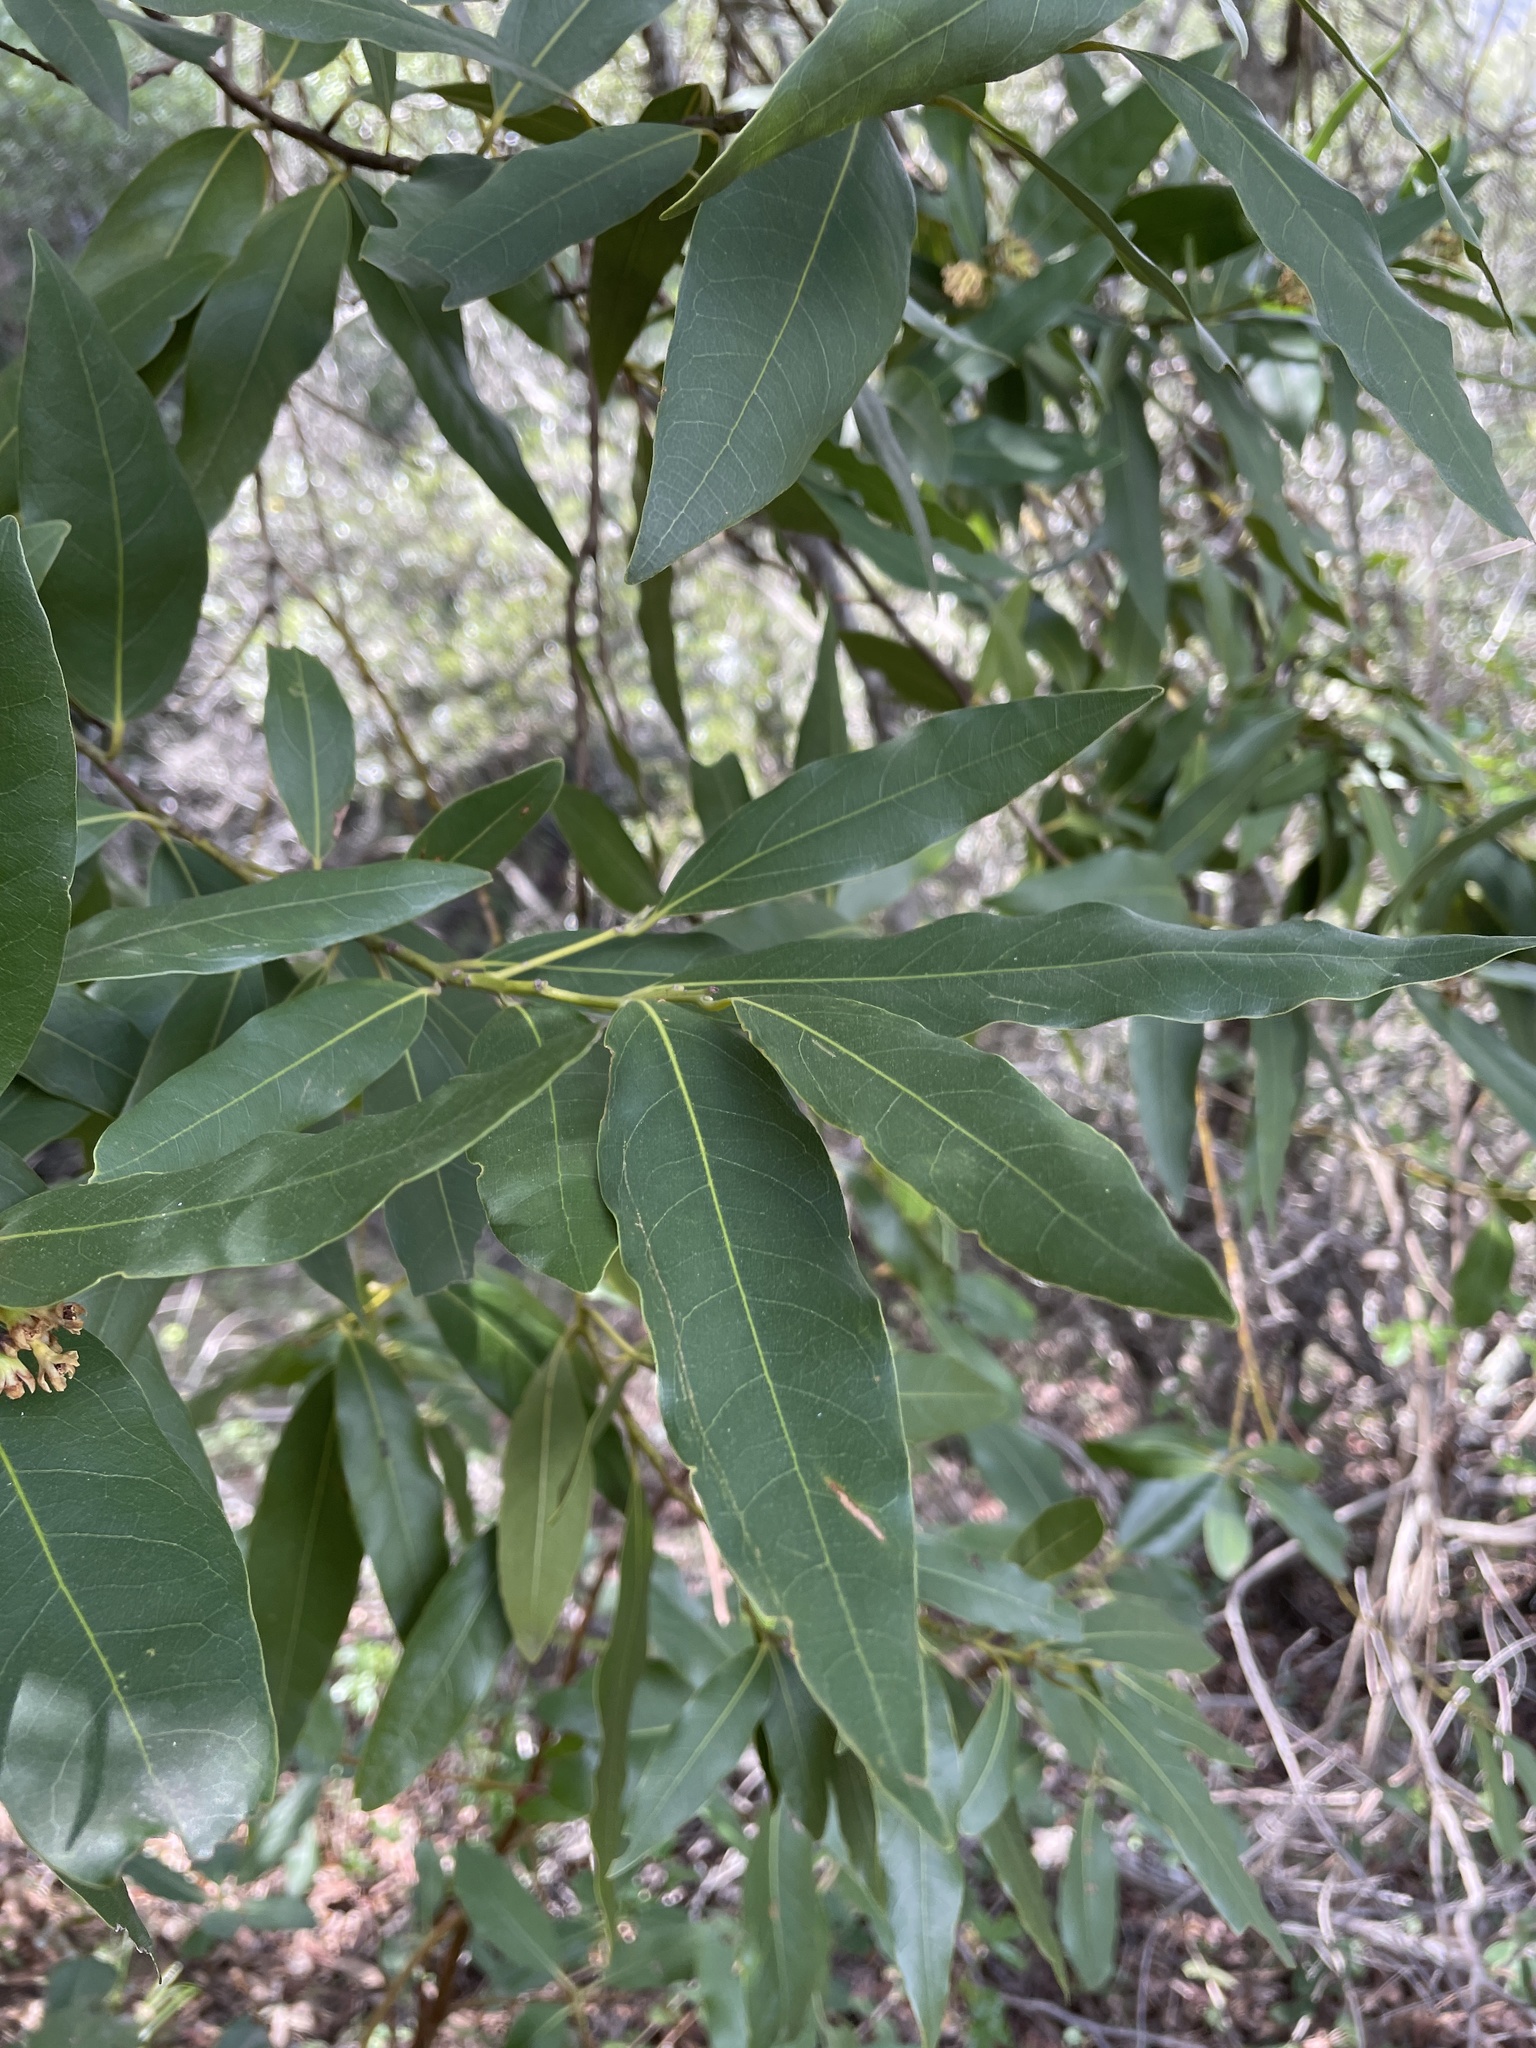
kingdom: Plantae
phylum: Tracheophyta
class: Magnoliopsida
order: Laurales
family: Lauraceae
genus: Umbellularia
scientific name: Umbellularia californica
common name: California bay
